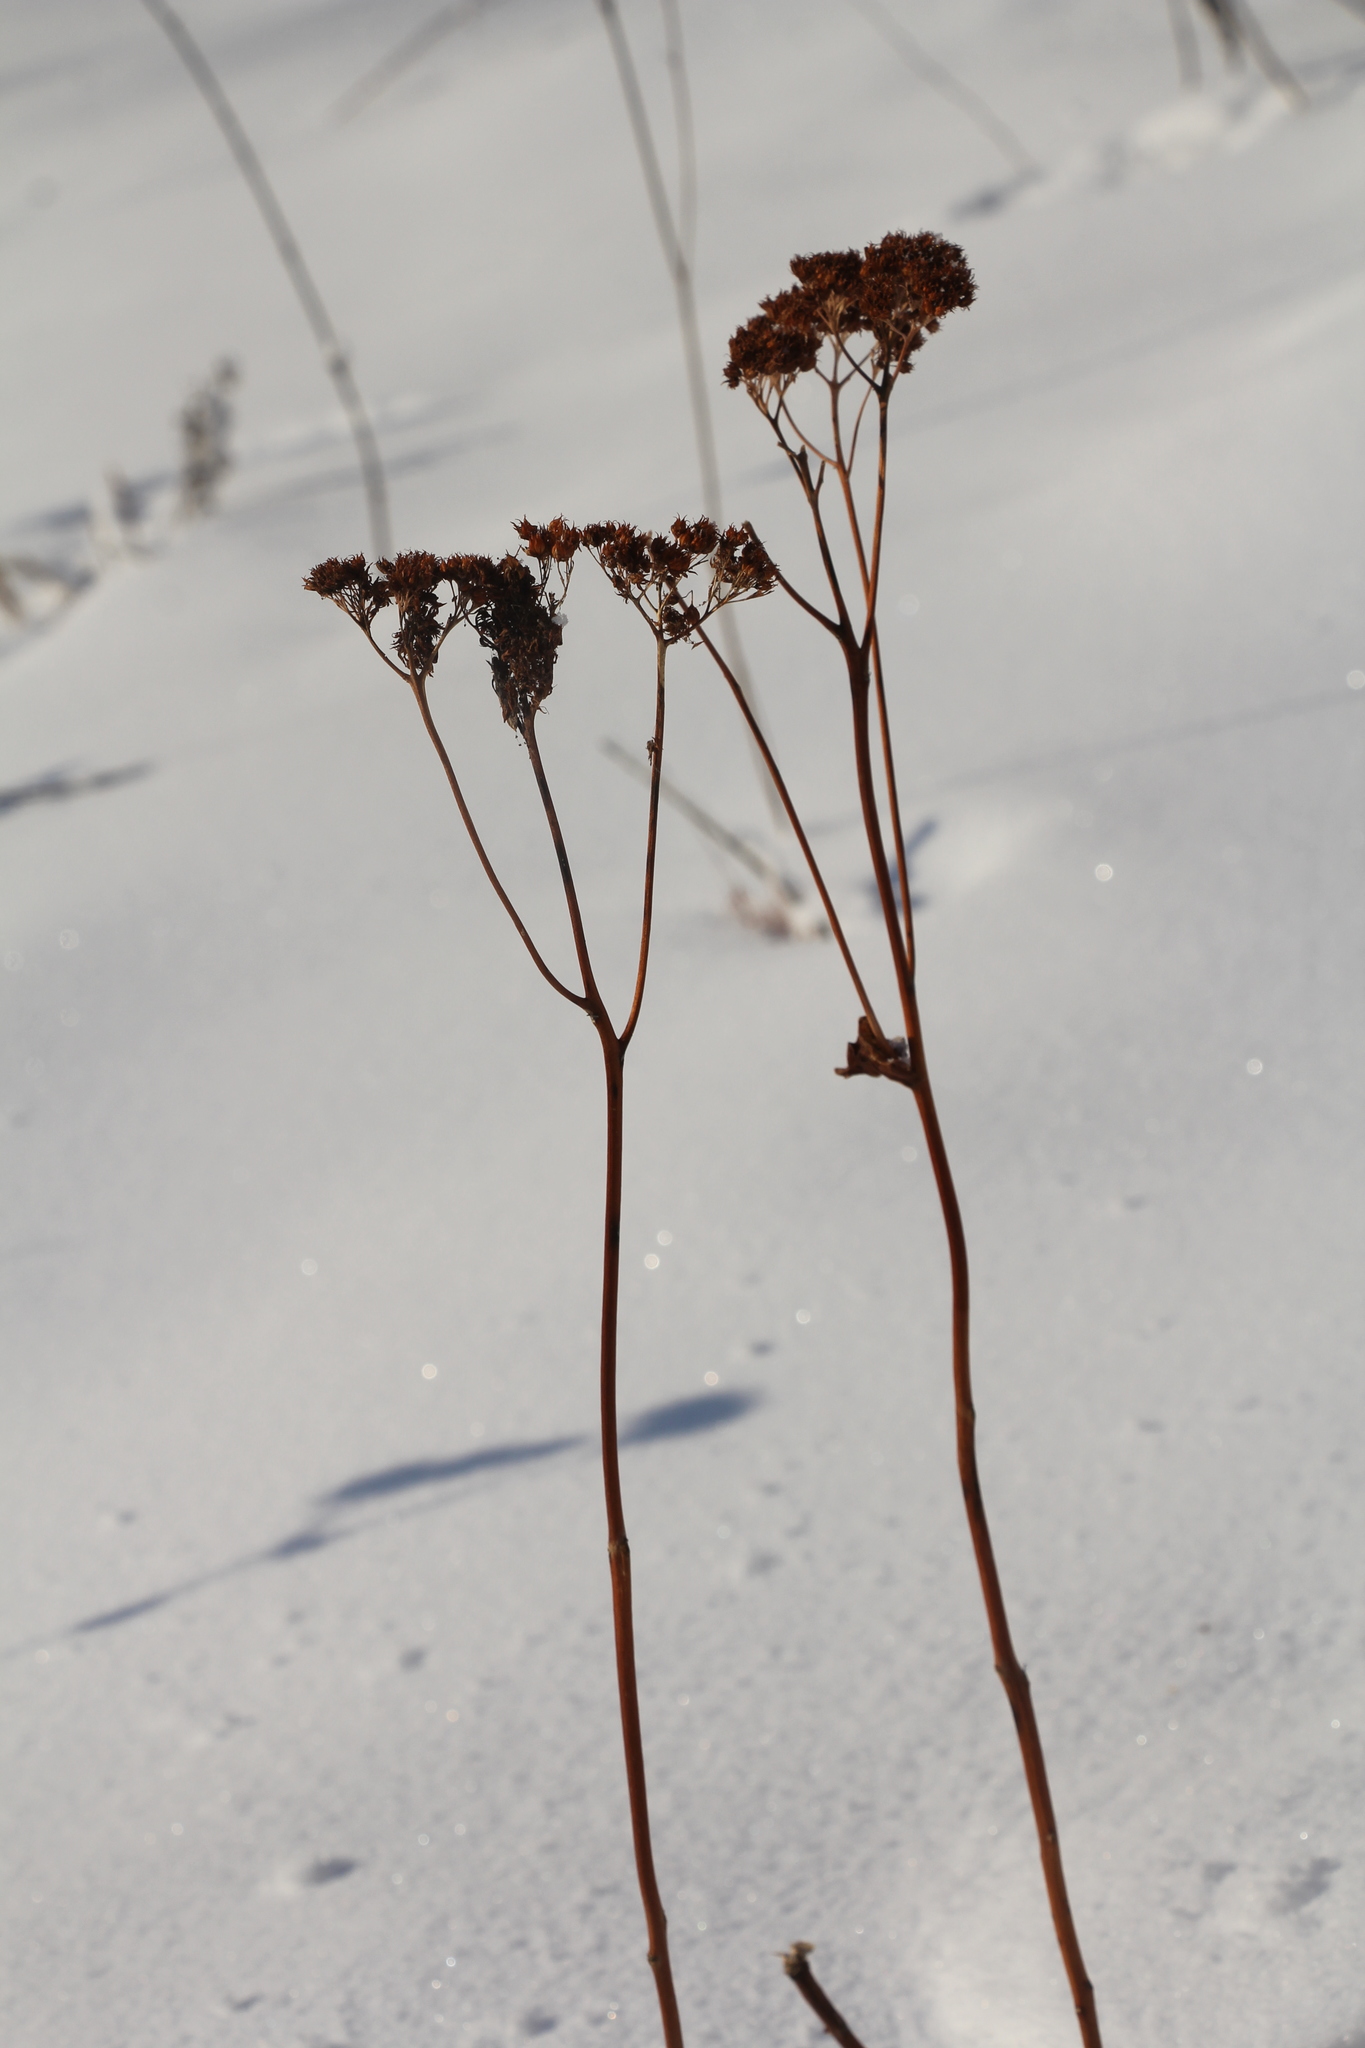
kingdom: Plantae
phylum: Tracheophyta
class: Magnoliopsida
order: Saxifragales
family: Crassulaceae
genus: Hylotelephium
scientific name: Hylotelephium telephium
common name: Live-forever
